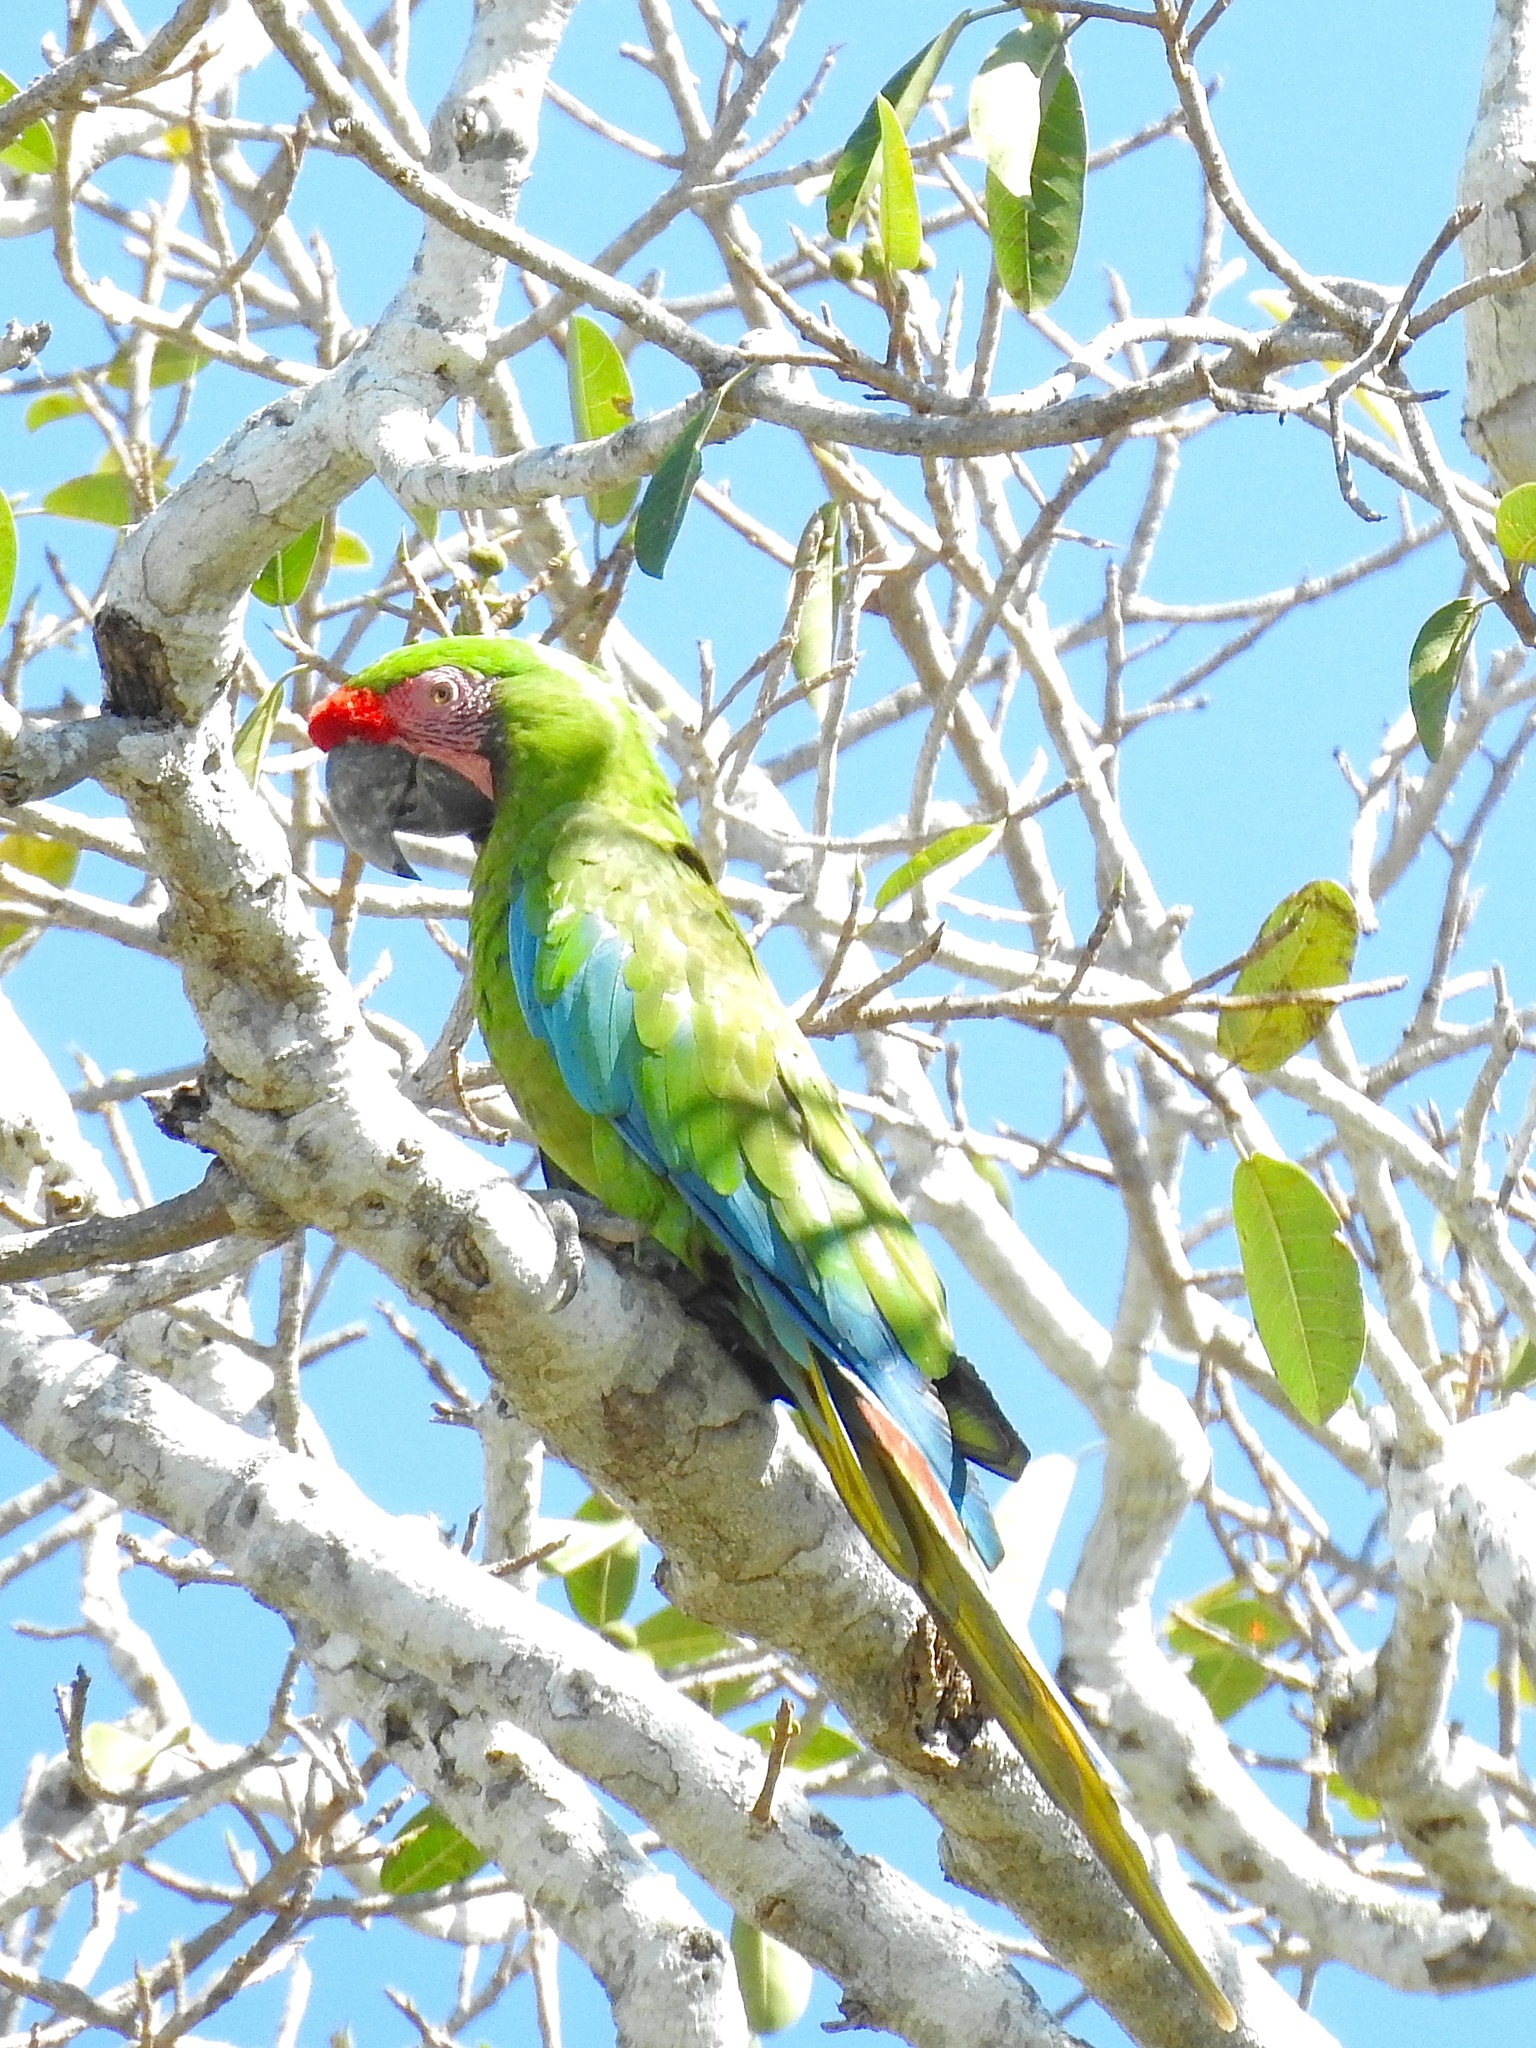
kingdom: Animalia
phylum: Chordata
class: Aves
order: Psittaciformes
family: Psittacidae
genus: Ara
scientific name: Ara militaris
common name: Military macaw
